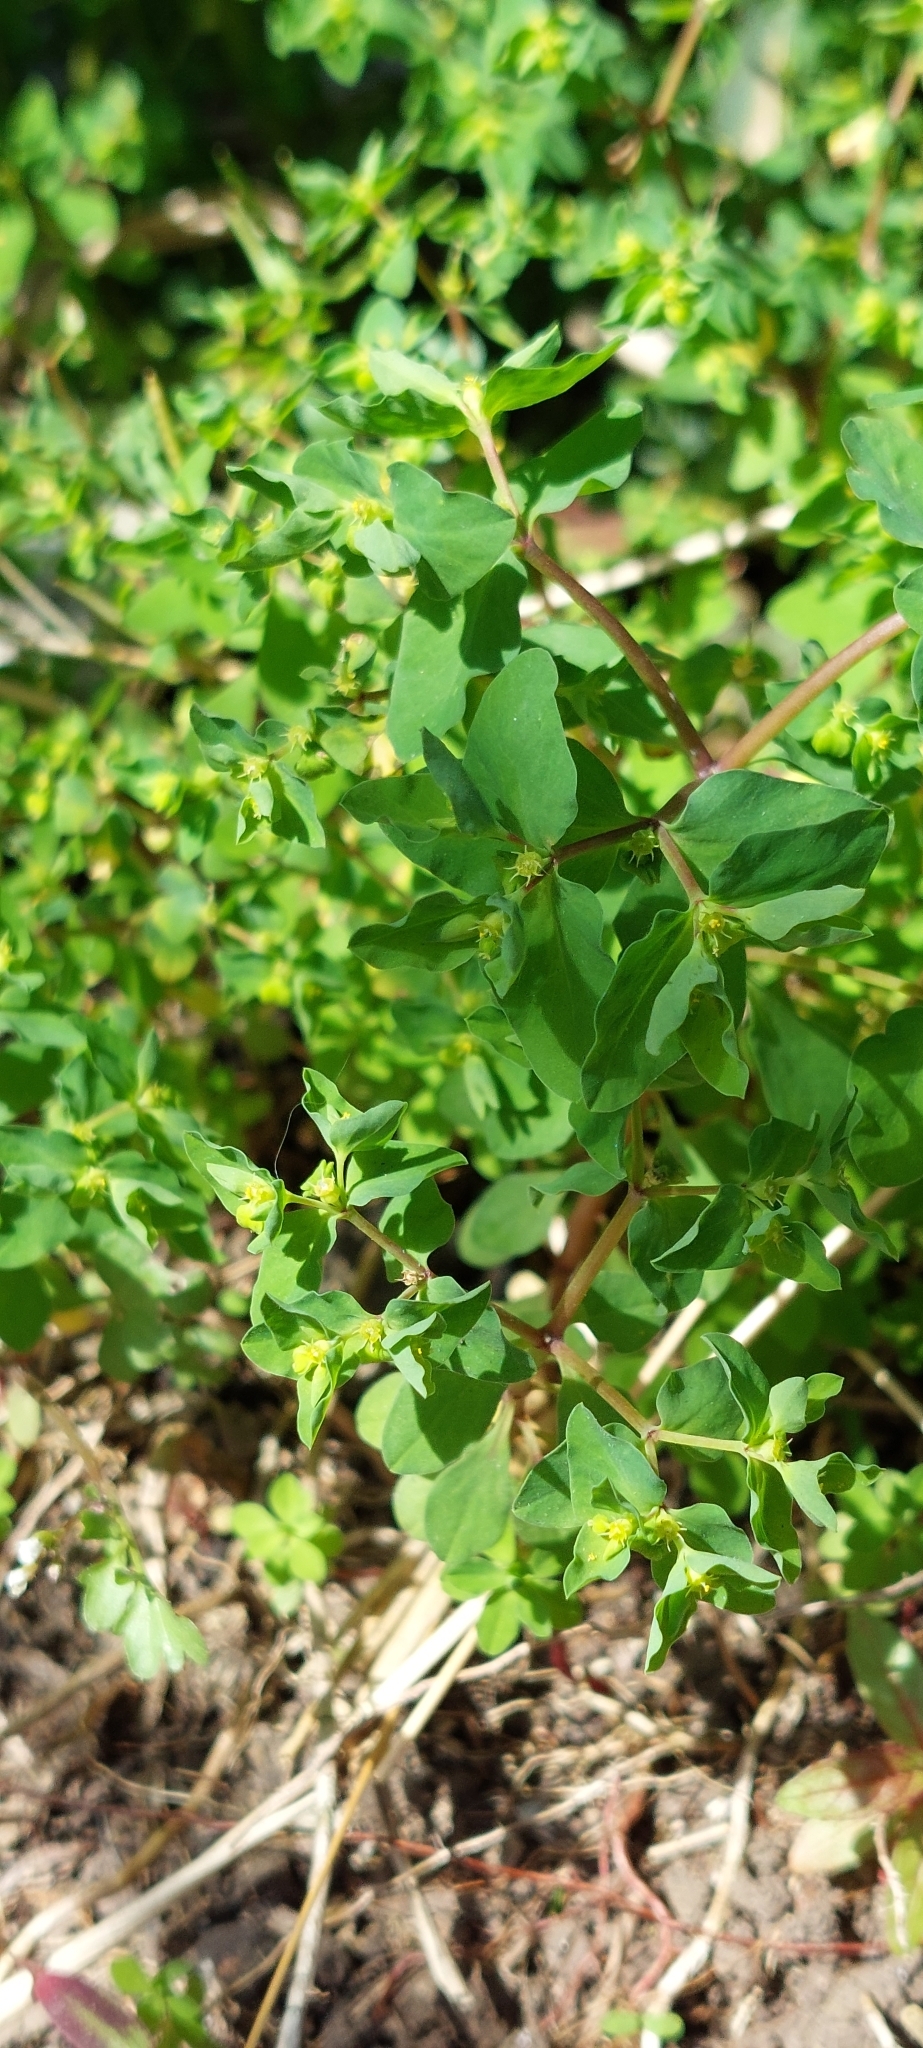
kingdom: Plantae
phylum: Tracheophyta
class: Magnoliopsida
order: Malpighiales
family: Euphorbiaceae
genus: Euphorbia
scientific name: Euphorbia peplus
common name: Petty spurge
